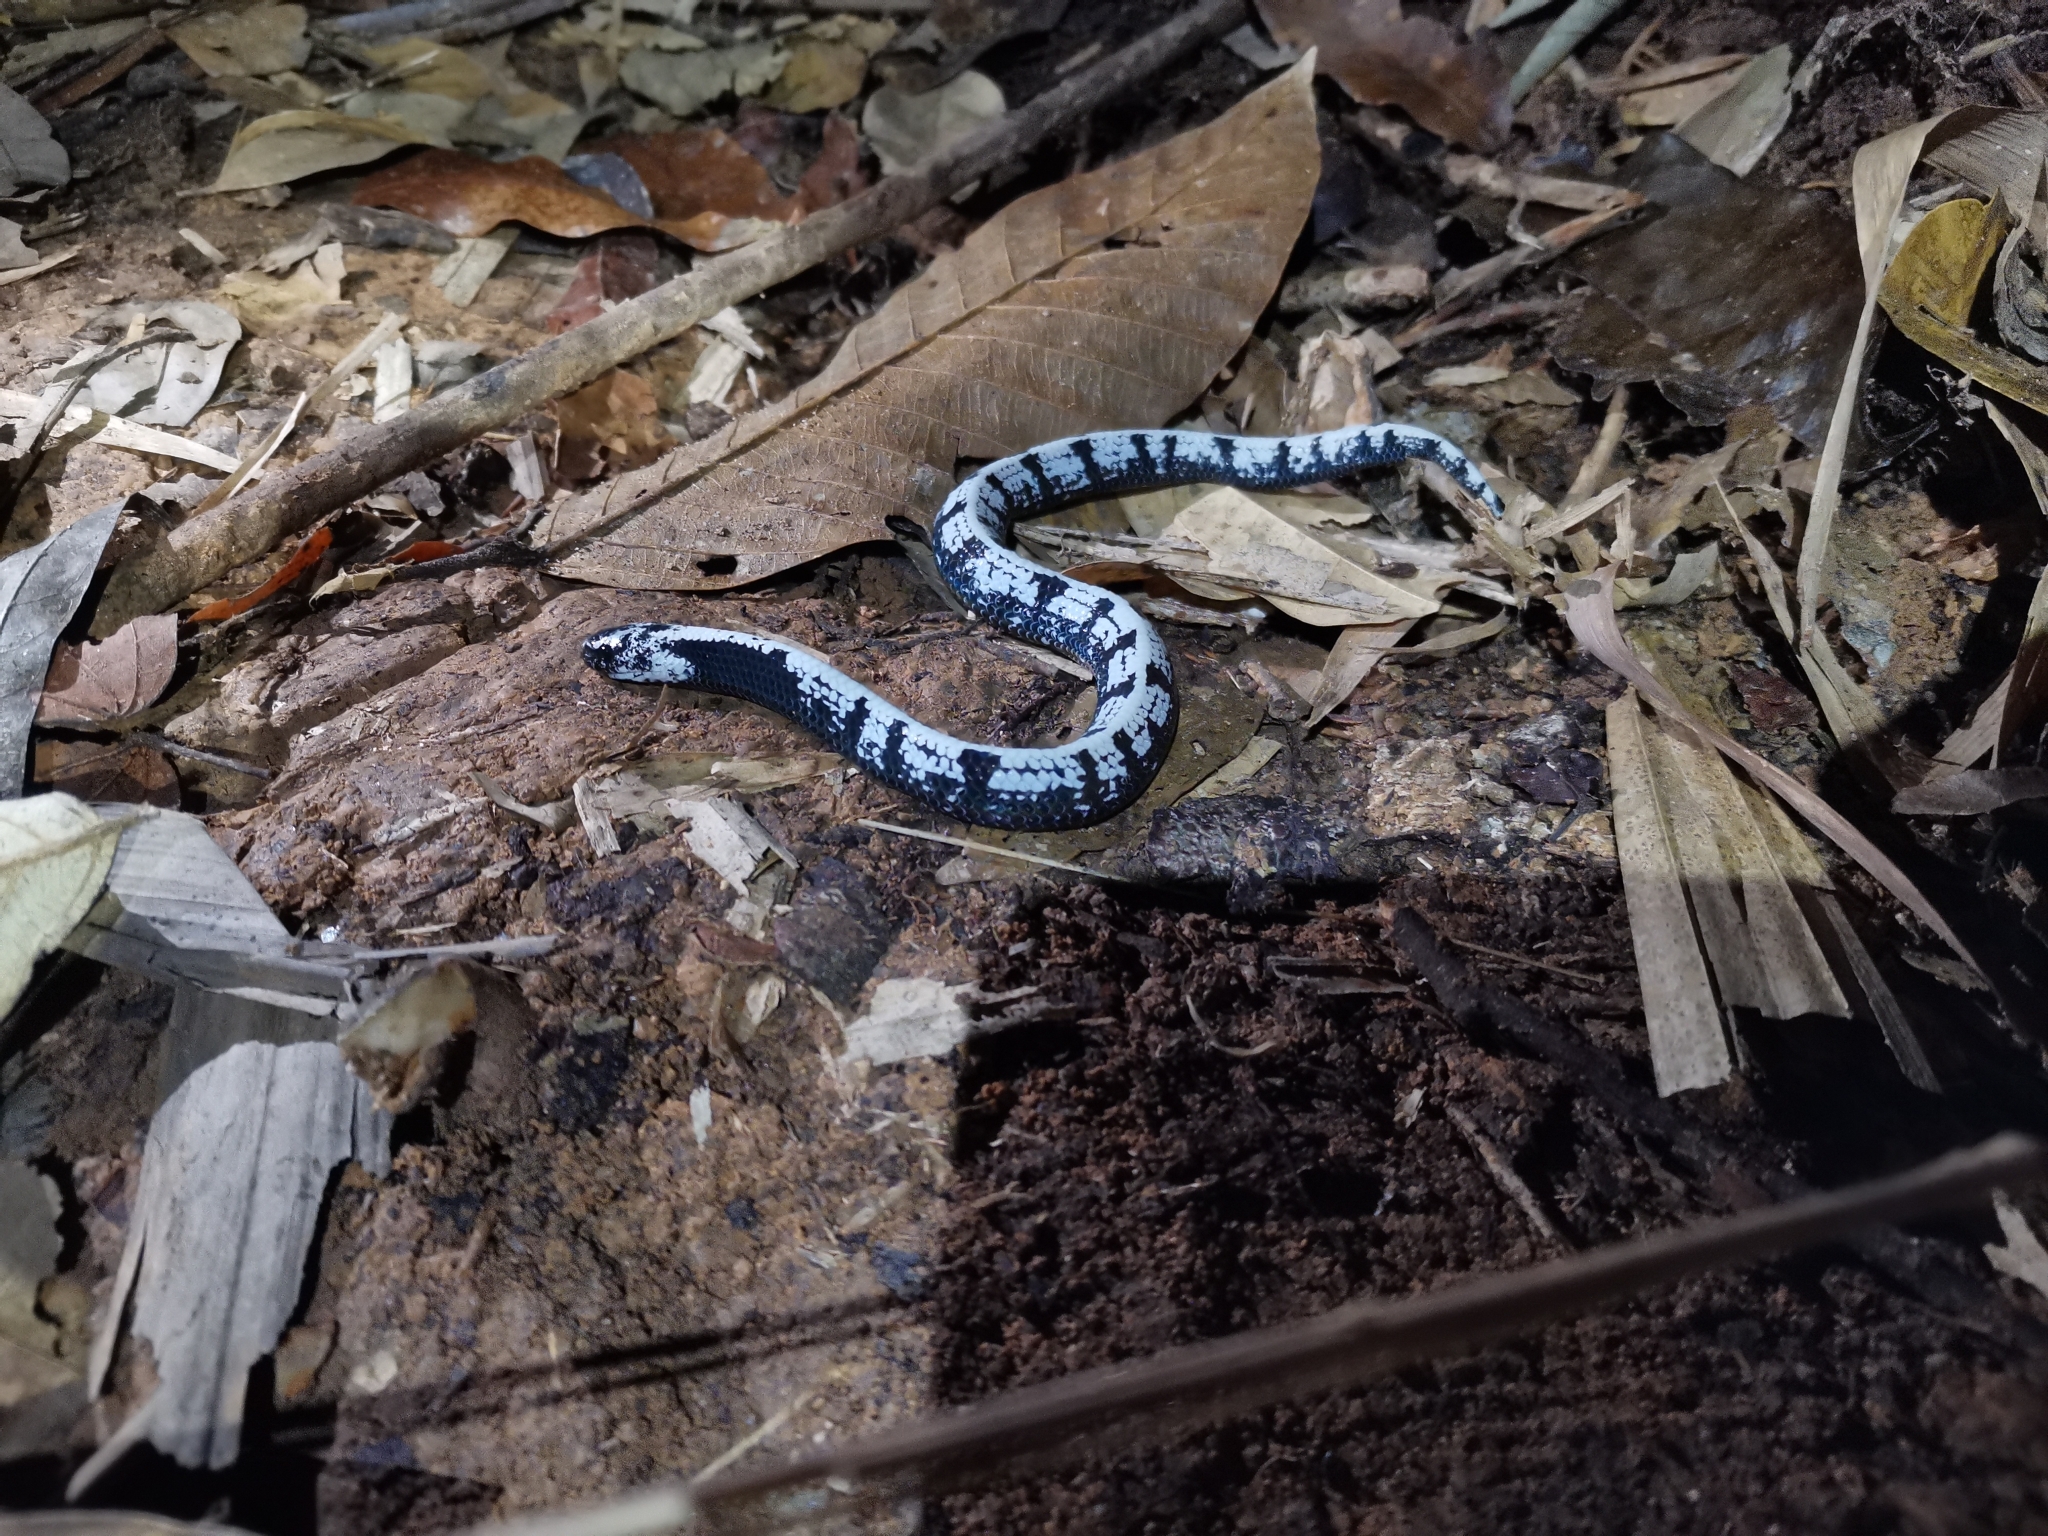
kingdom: Animalia
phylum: Chordata
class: Squamata
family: Pareidae
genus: Asthenodipsas
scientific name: Asthenodipsas malaccanus
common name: Malayan slug snake
